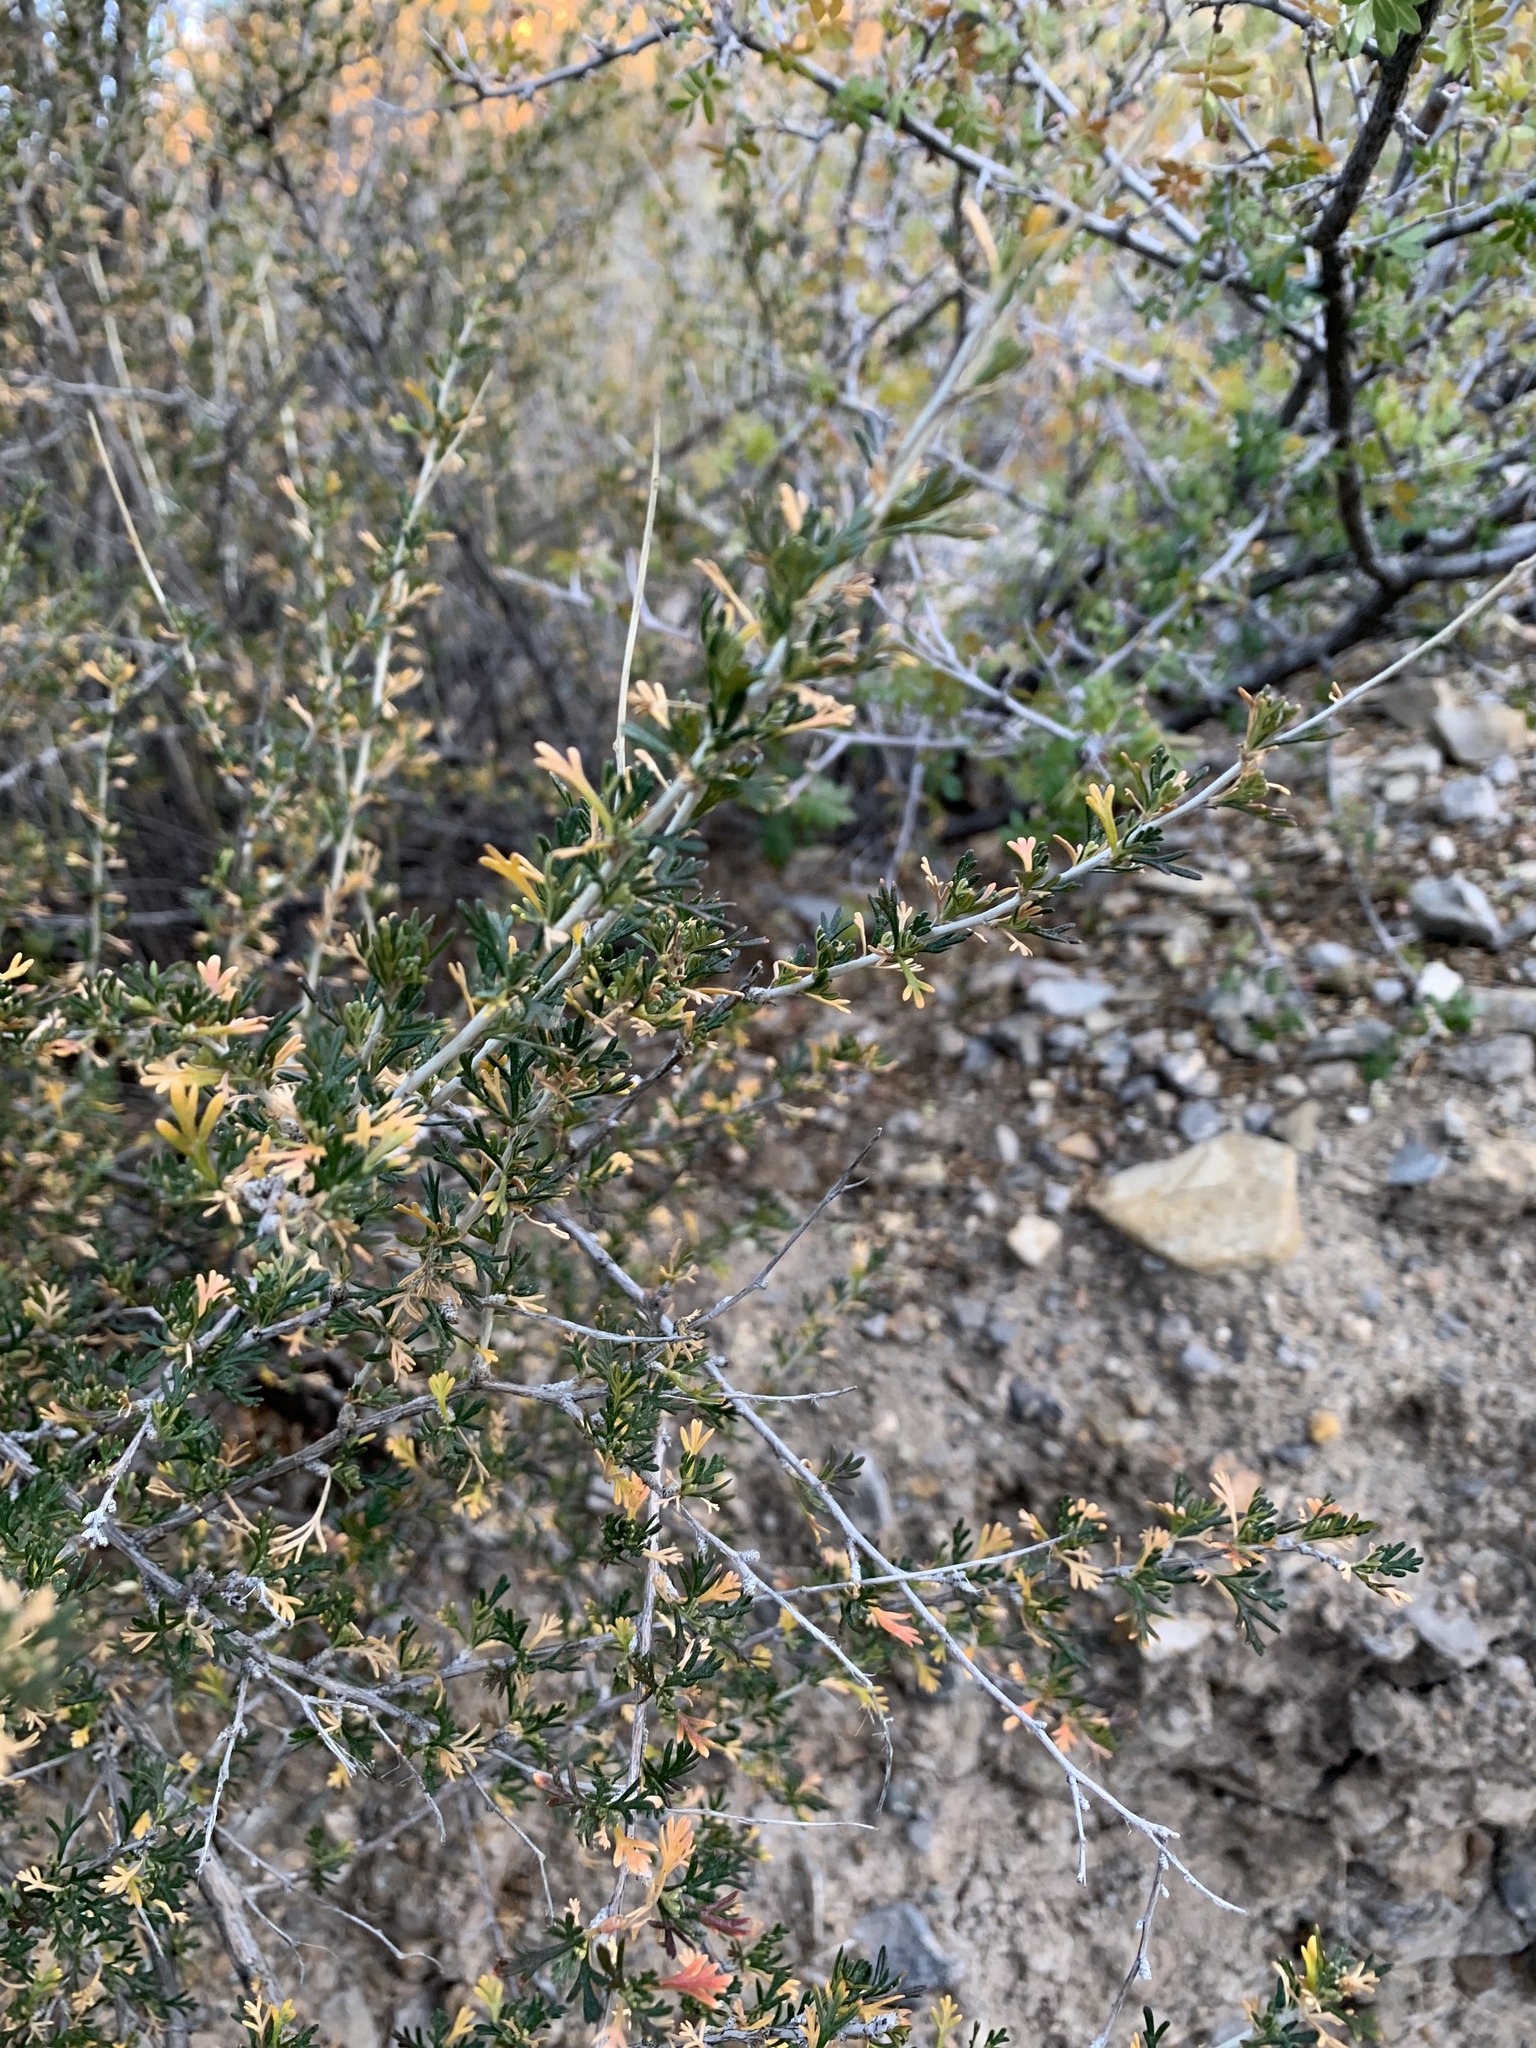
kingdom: Plantae
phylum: Tracheophyta
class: Magnoliopsida
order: Rosales
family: Rosaceae
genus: Fallugia
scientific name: Fallugia paradoxa
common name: Apache-plume
